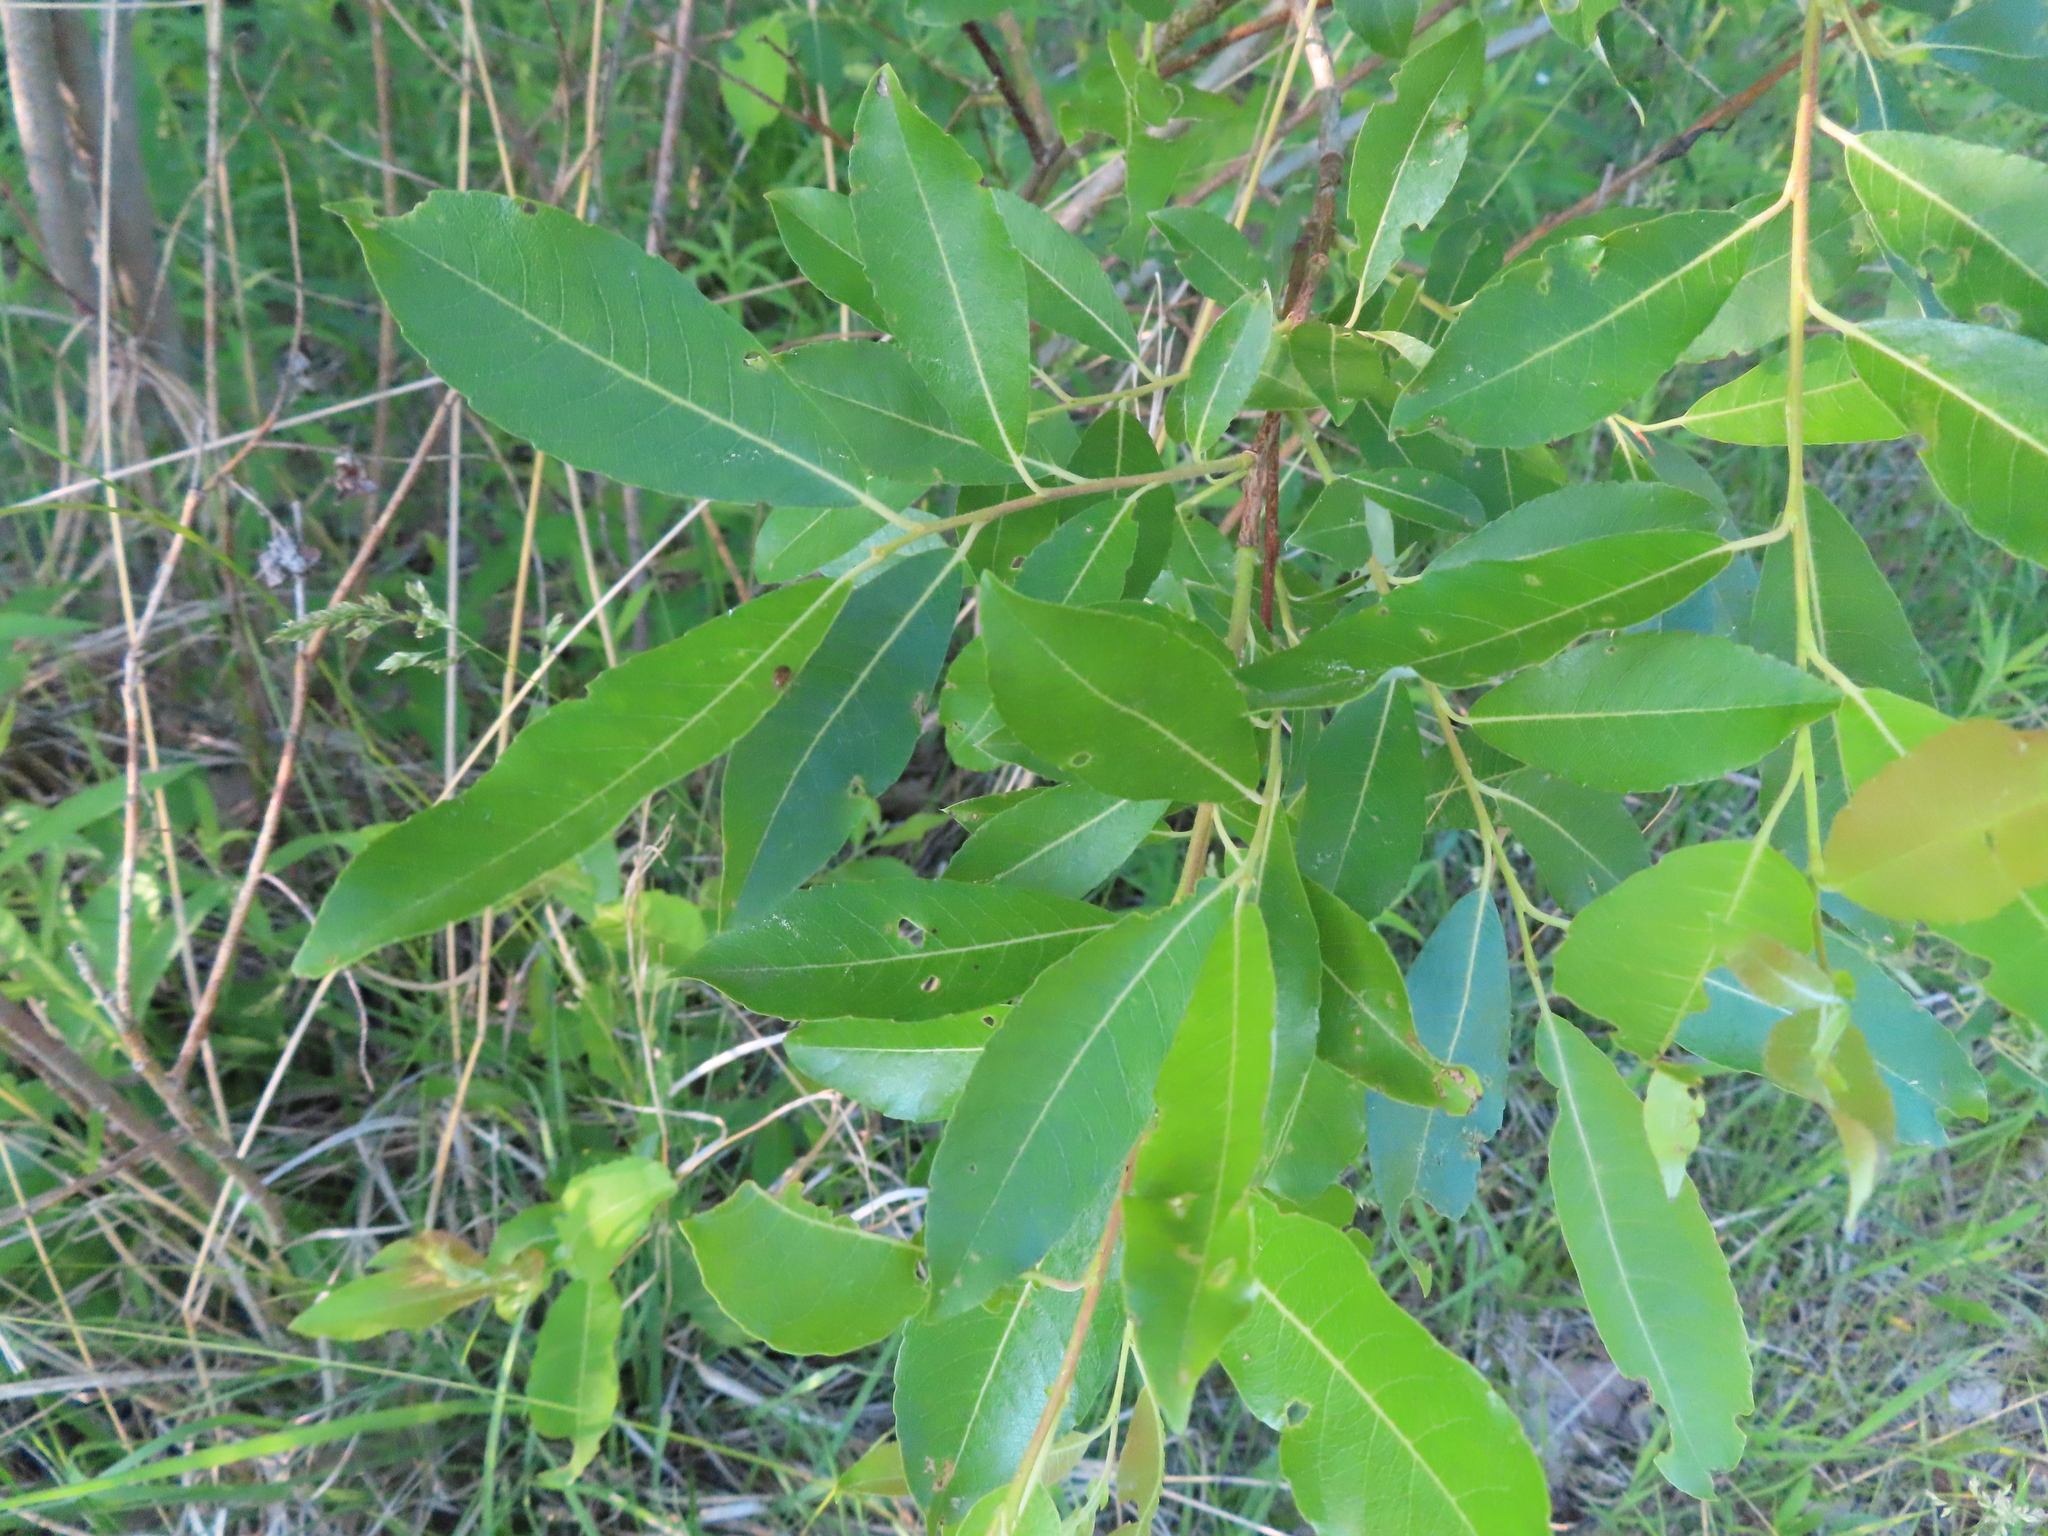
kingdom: Plantae
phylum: Tracheophyta
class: Magnoliopsida
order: Malpighiales
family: Salicaceae
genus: Salix
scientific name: Salix discolor
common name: Glaucous willow
